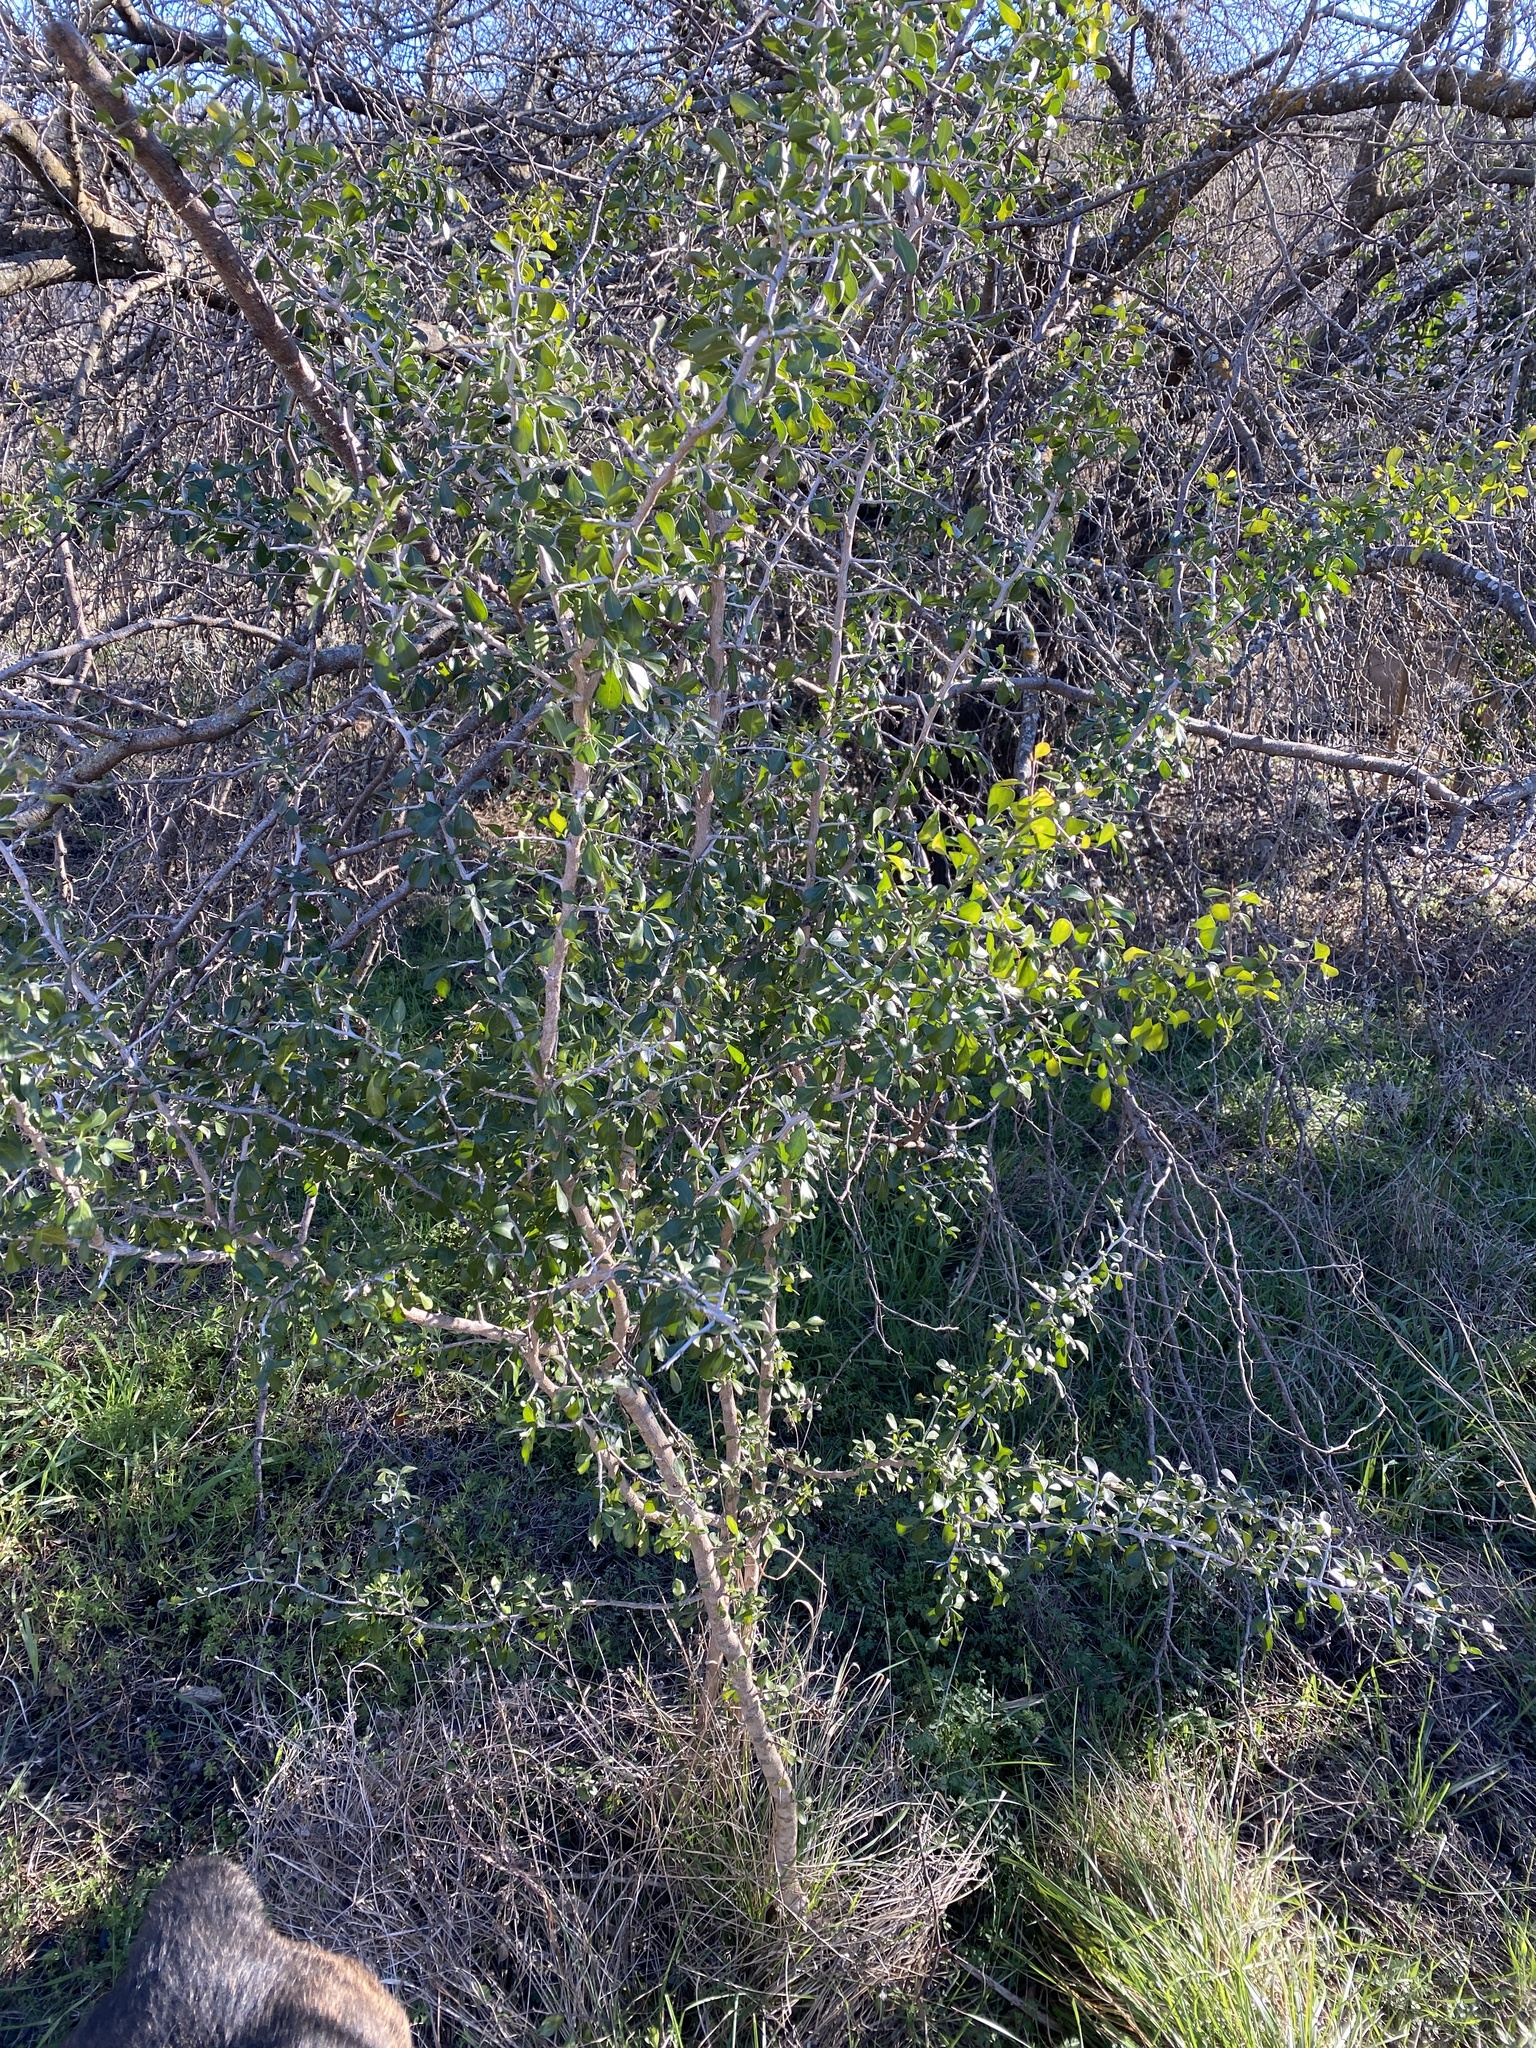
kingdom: Plantae
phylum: Tracheophyta
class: Magnoliopsida
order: Rosales
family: Rhamnaceae
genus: Condalia
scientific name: Condalia hookeri
